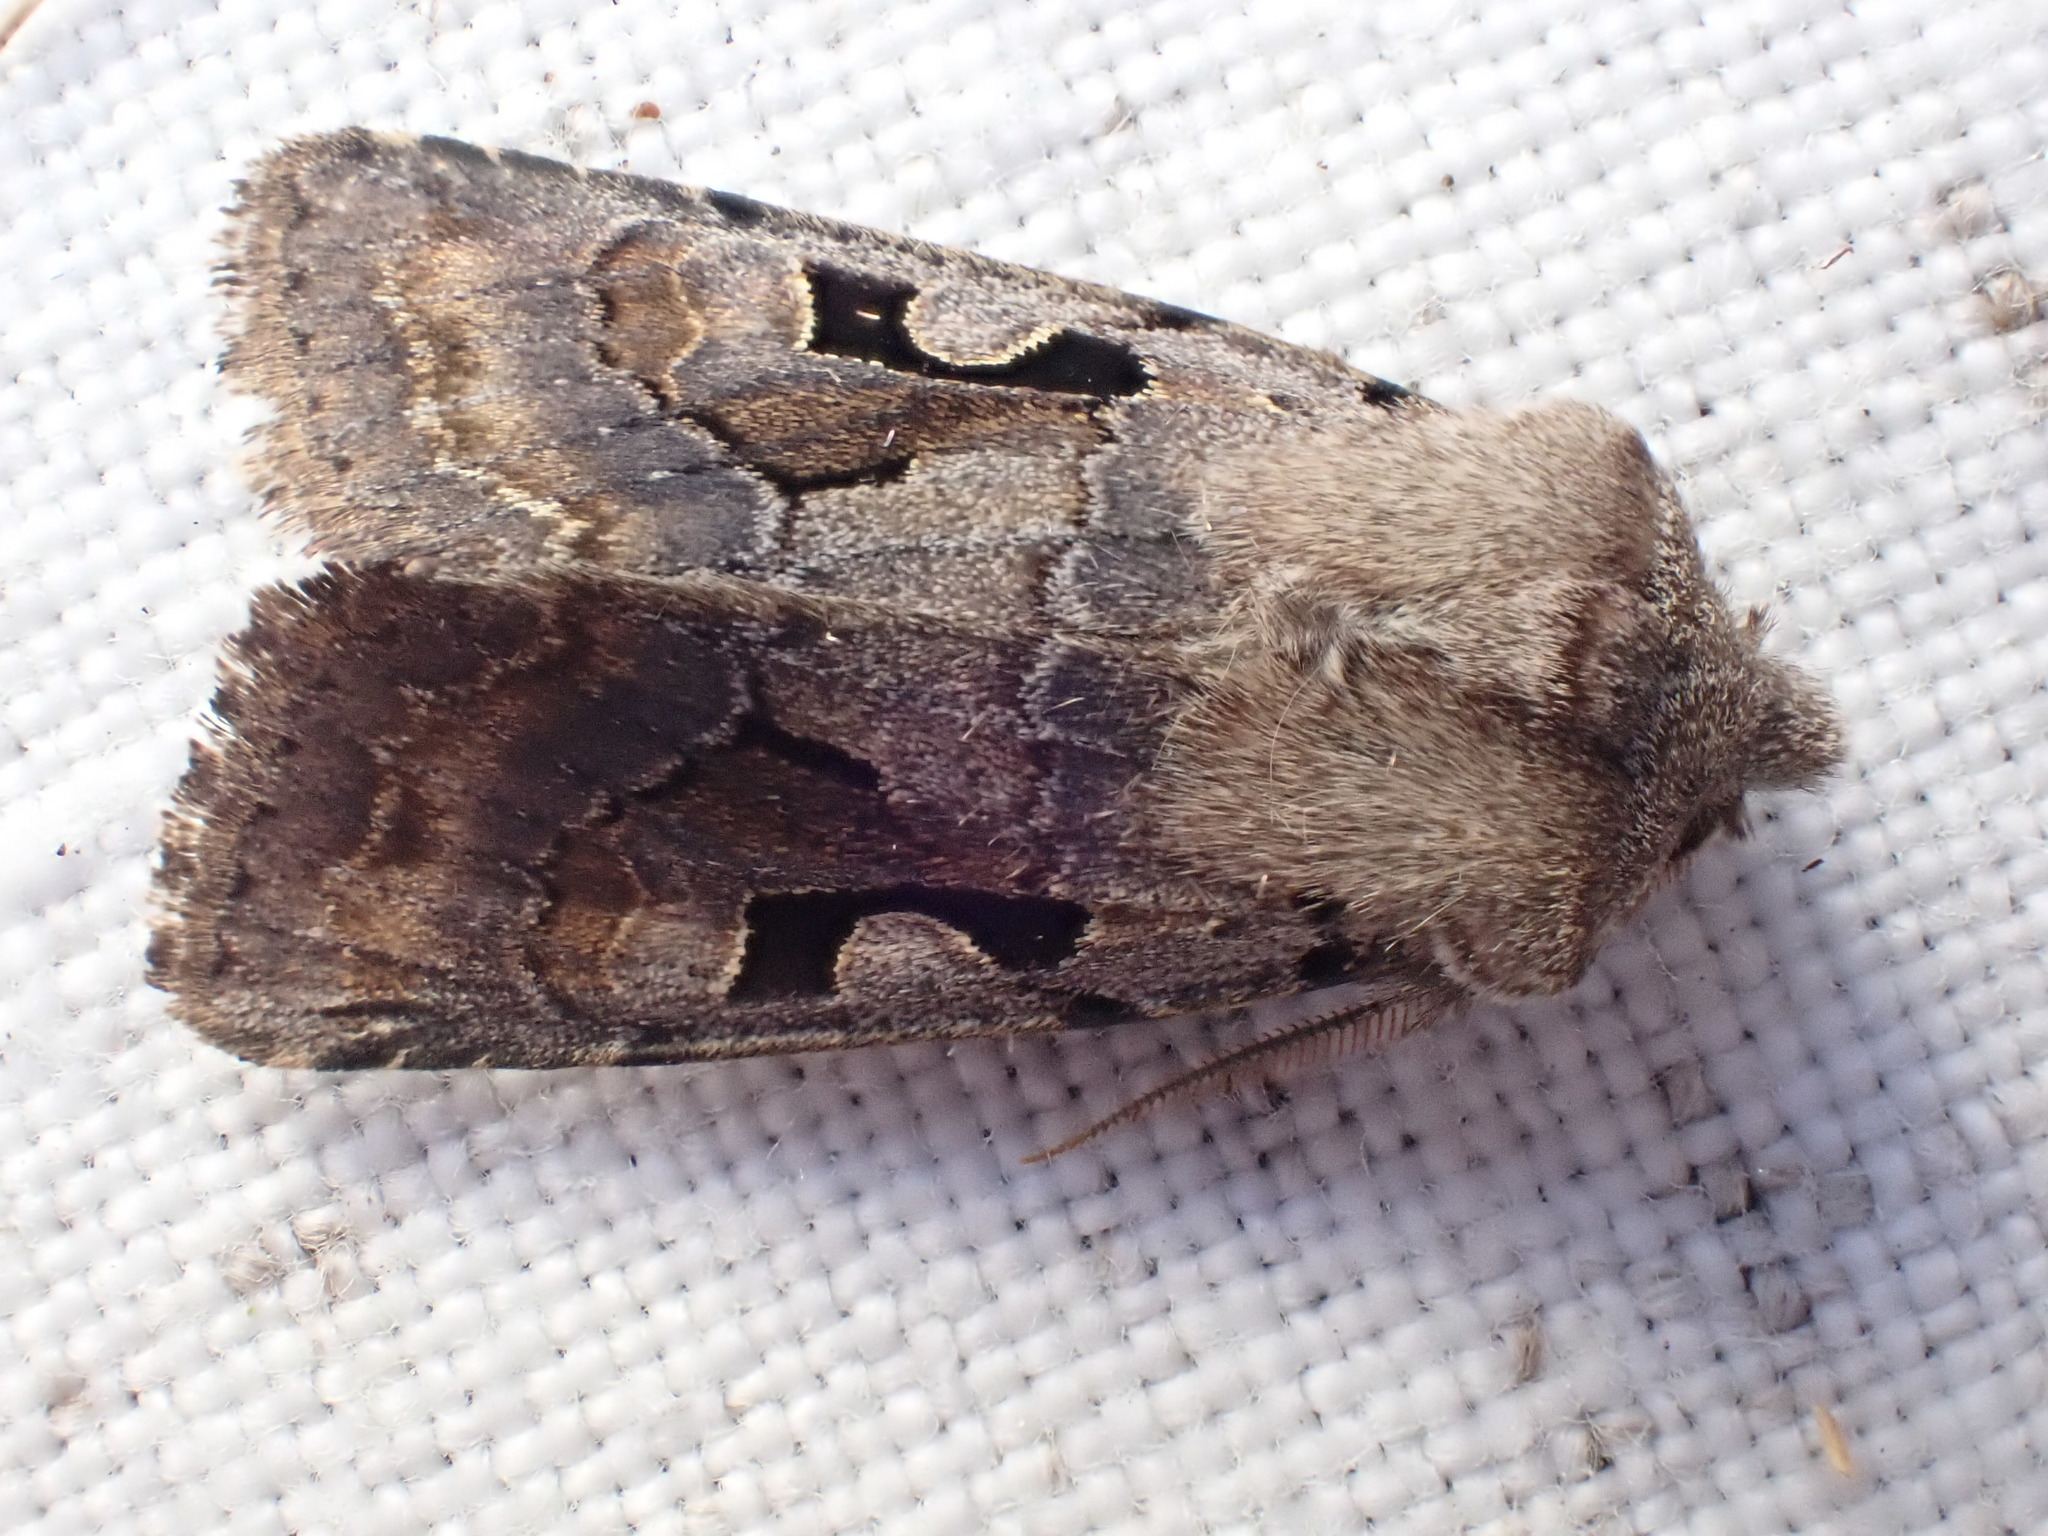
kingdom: Animalia
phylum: Arthropoda
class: Insecta
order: Lepidoptera
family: Noctuidae
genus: Orthosia
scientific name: Orthosia gothica
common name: Hebrew character
